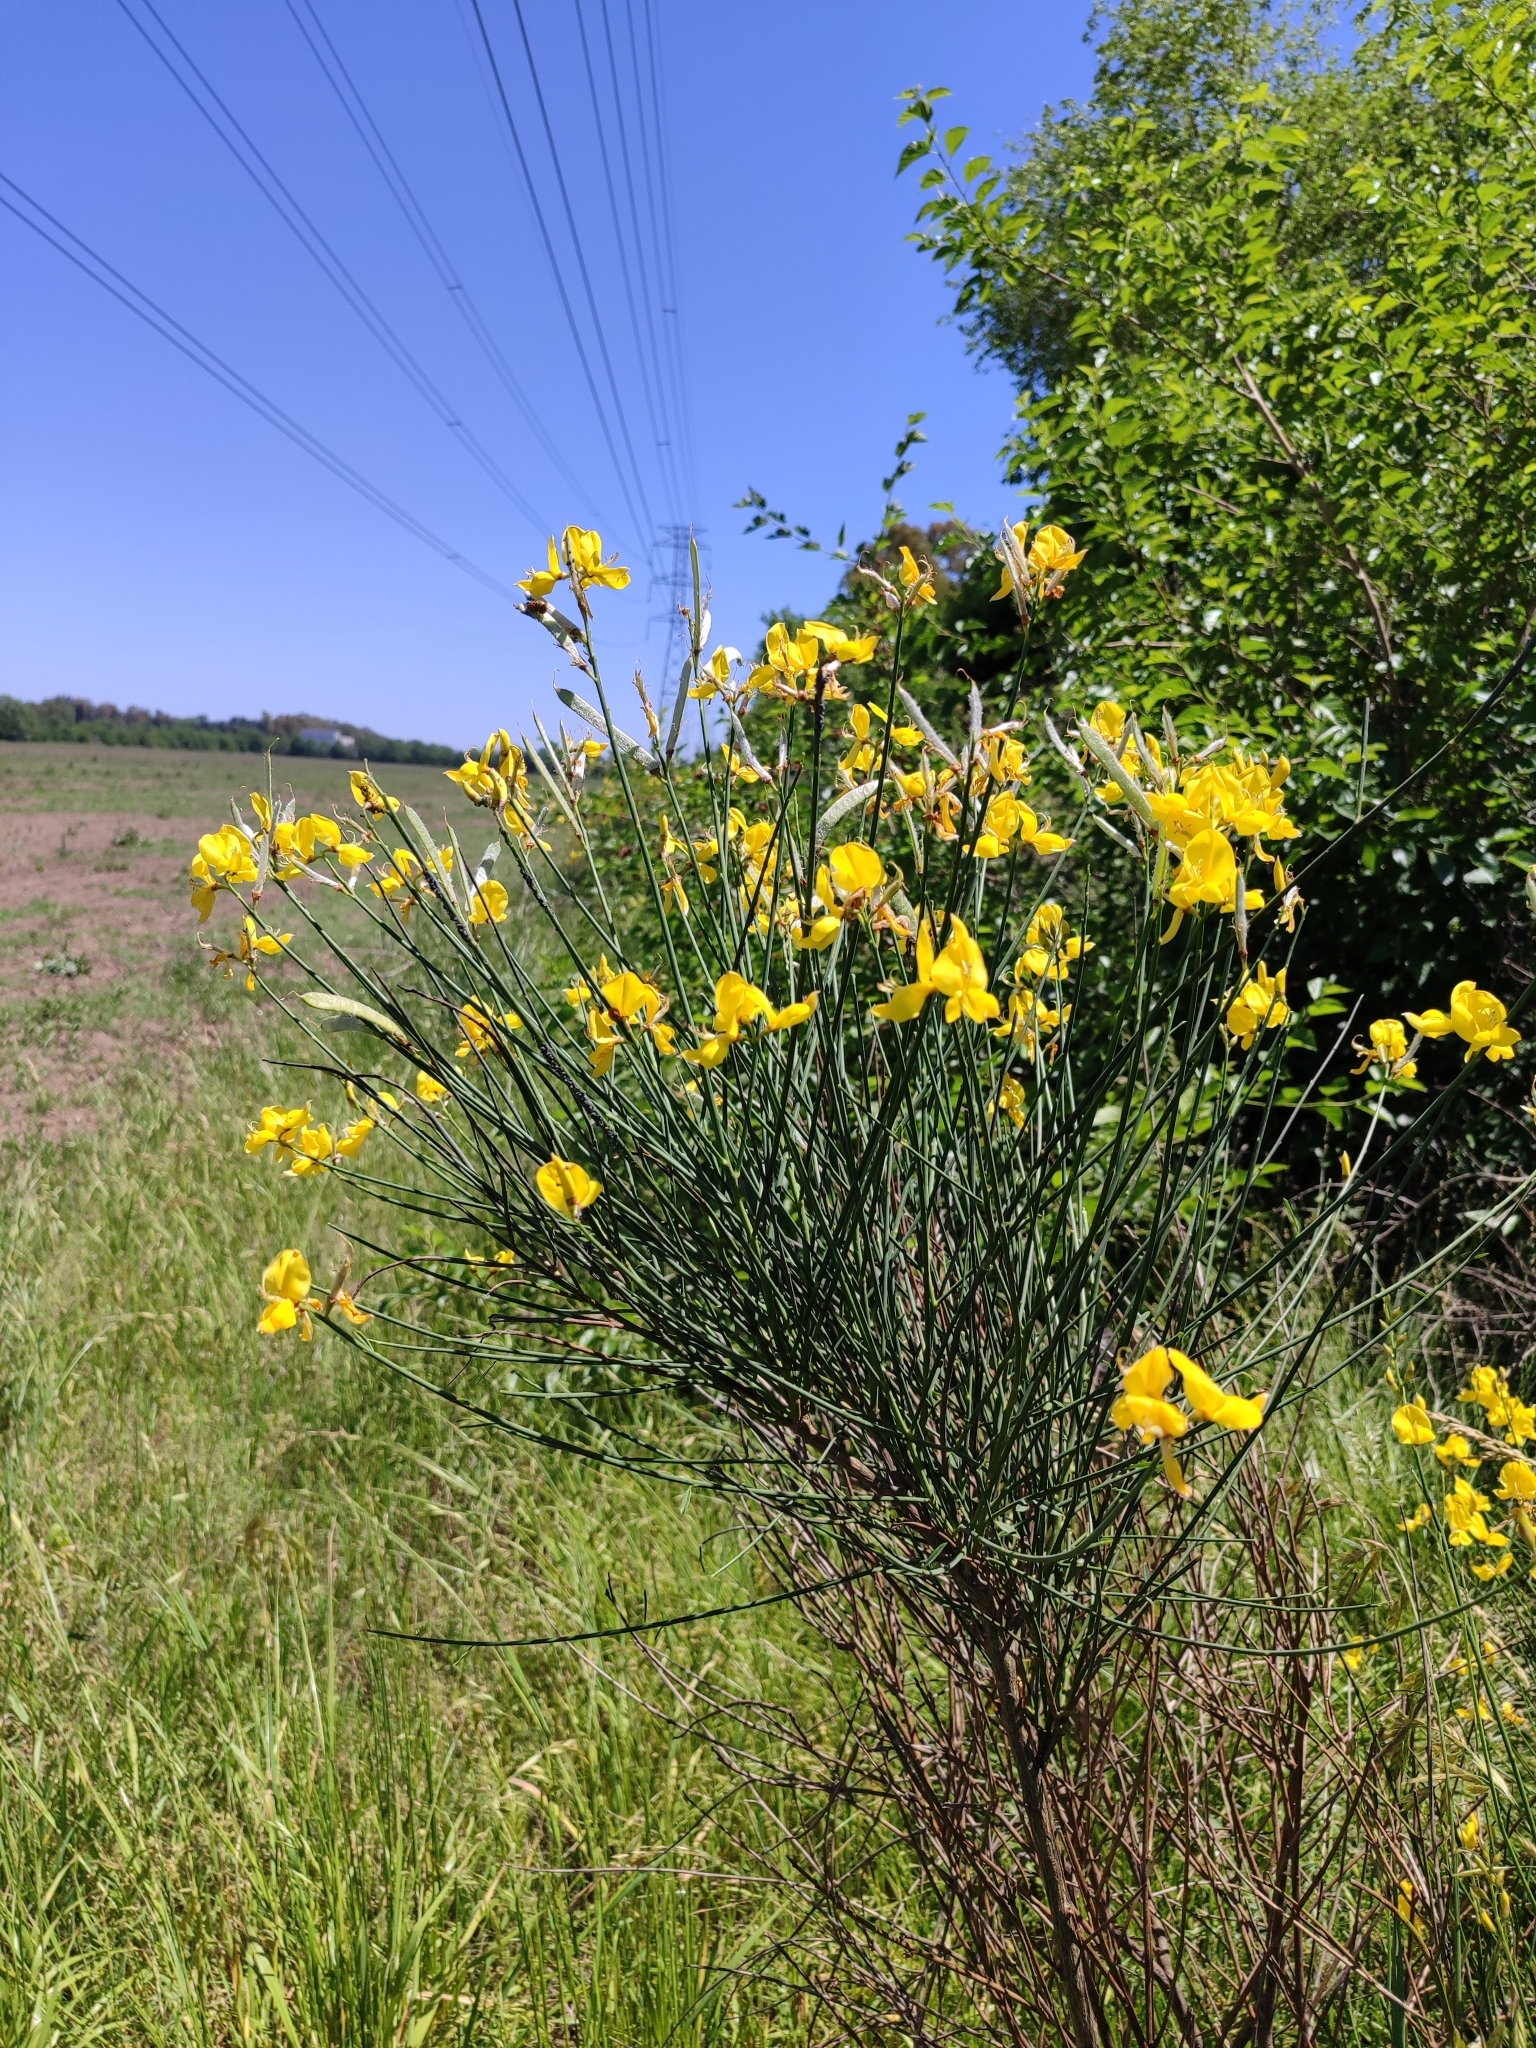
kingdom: Plantae
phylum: Tracheophyta
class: Magnoliopsida
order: Fabales
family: Fabaceae
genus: Spartium
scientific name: Spartium junceum
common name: Spanish broom
